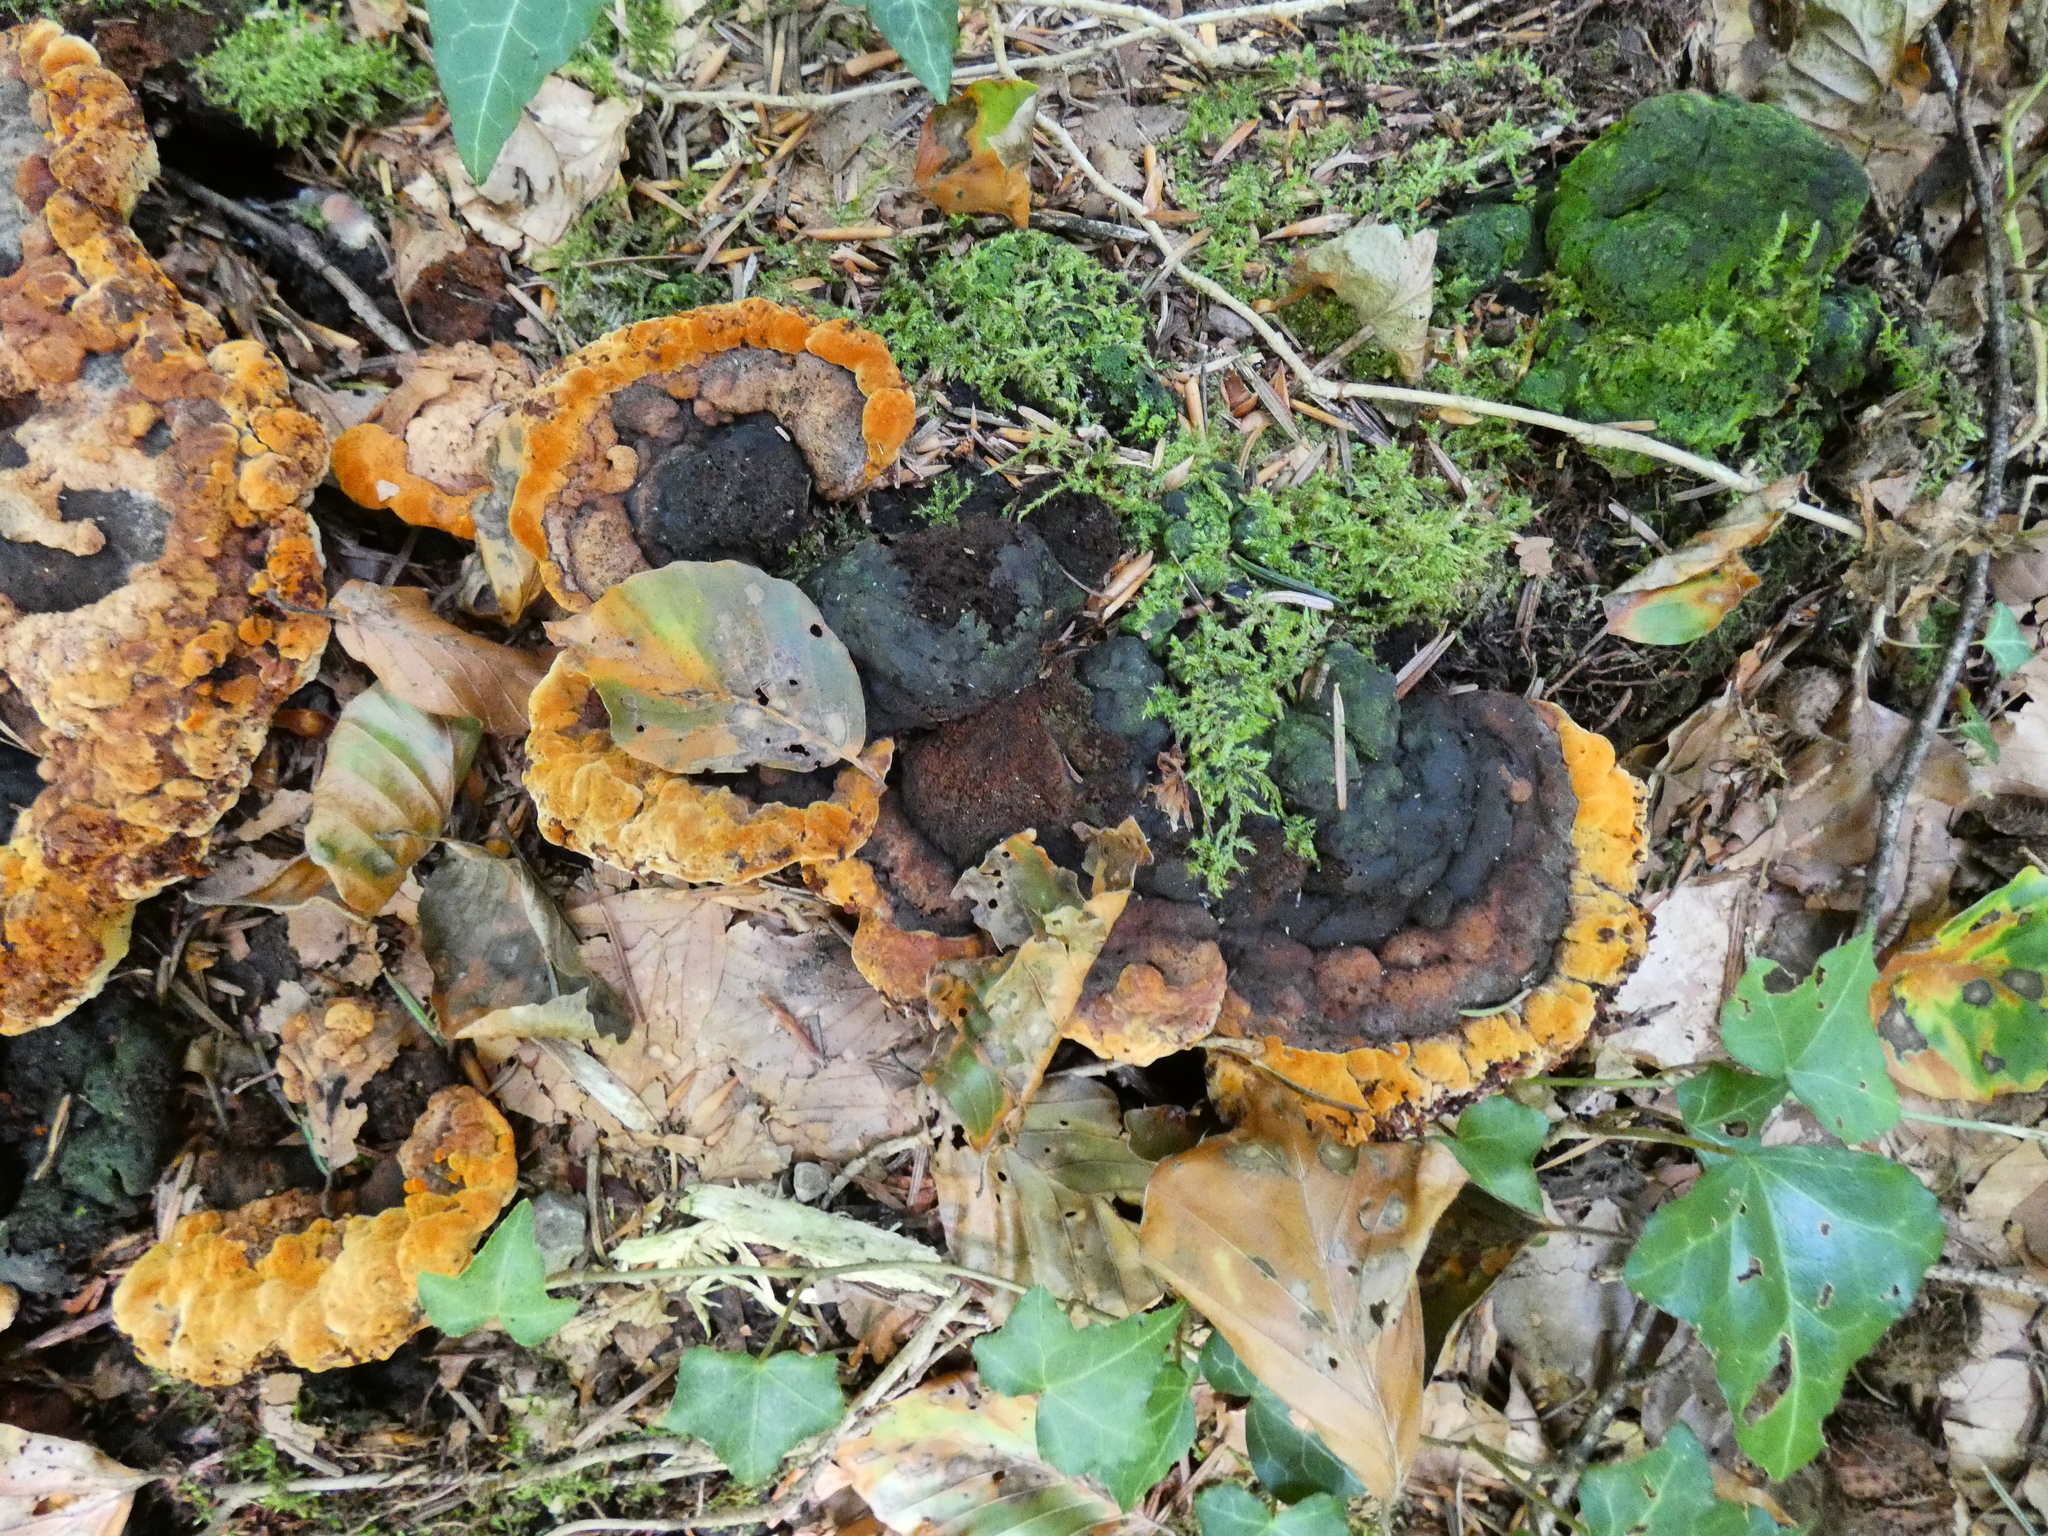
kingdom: Fungi
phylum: Basidiomycota
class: Agaricomycetes
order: Gloeophyllales
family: Gloeophyllaceae
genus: Gloeophyllum
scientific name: Gloeophyllum odoratum
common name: Anise mazegill
